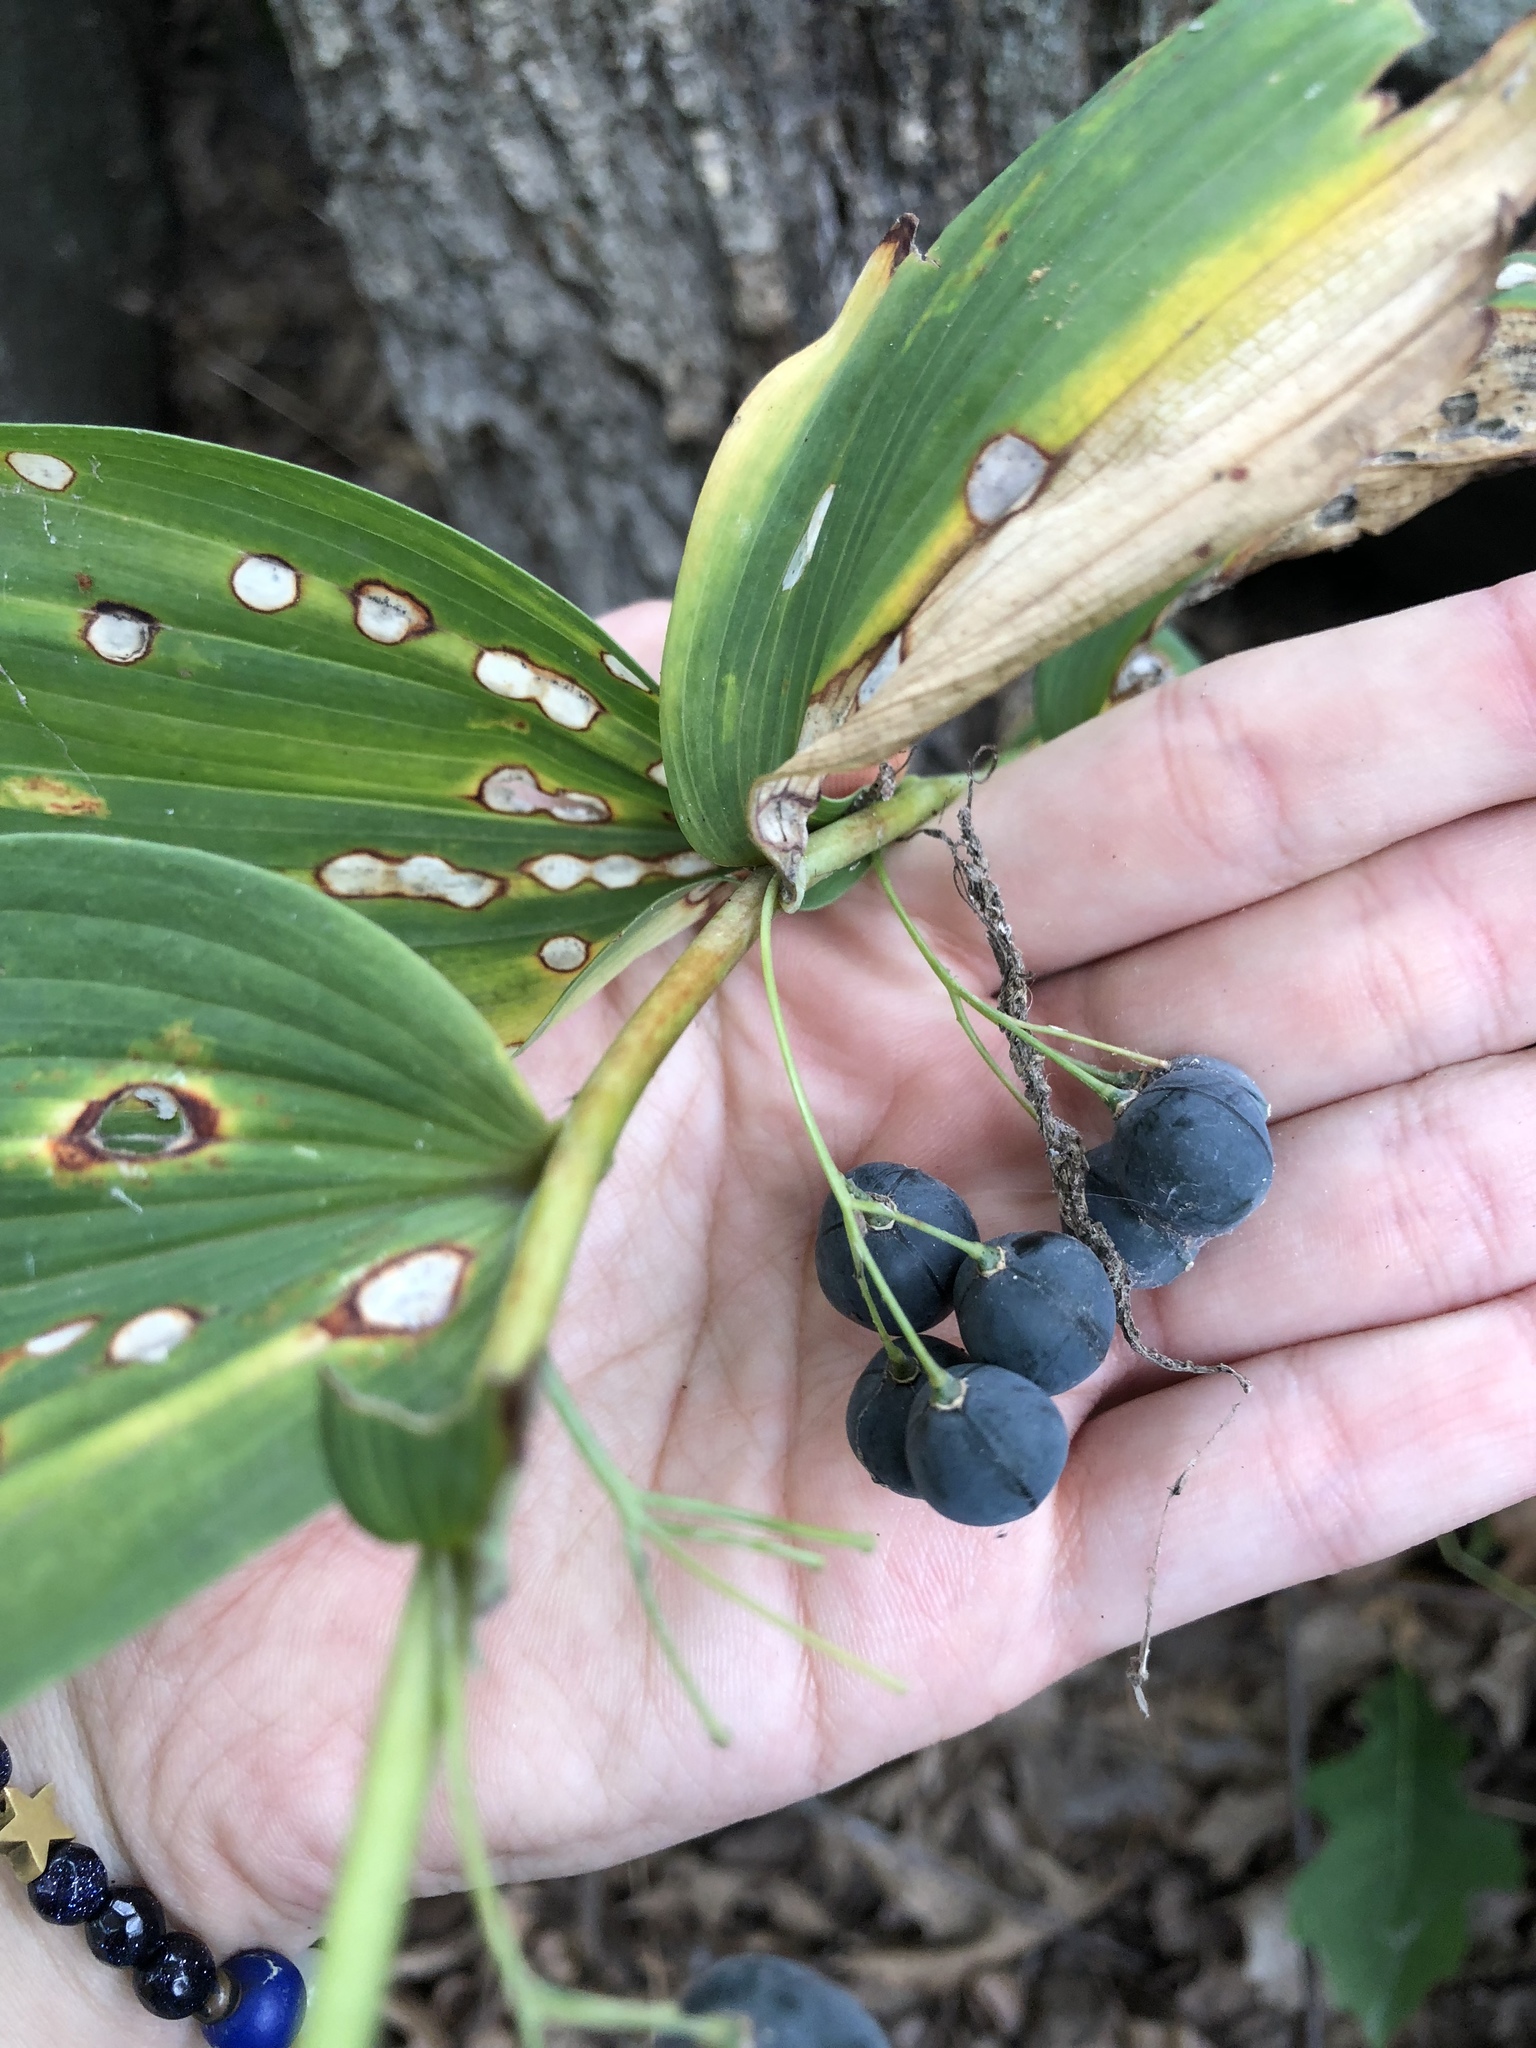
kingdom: Plantae
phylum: Tracheophyta
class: Liliopsida
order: Asparagales
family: Asparagaceae
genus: Polygonatum
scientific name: Polygonatum biflorum
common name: American solomon's-seal
